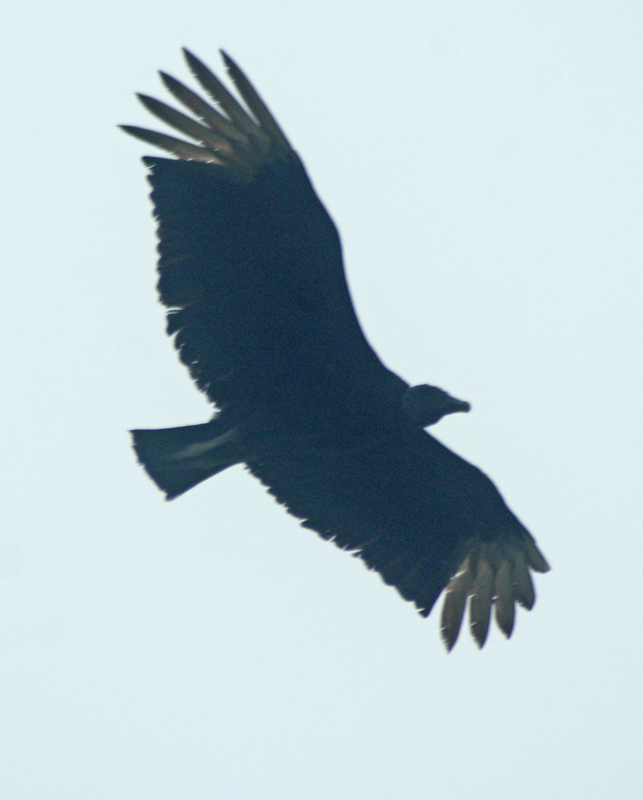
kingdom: Animalia
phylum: Chordata
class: Aves
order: Accipitriformes
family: Cathartidae
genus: Coragyps
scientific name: Coragyps atratus
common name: Black vulture
